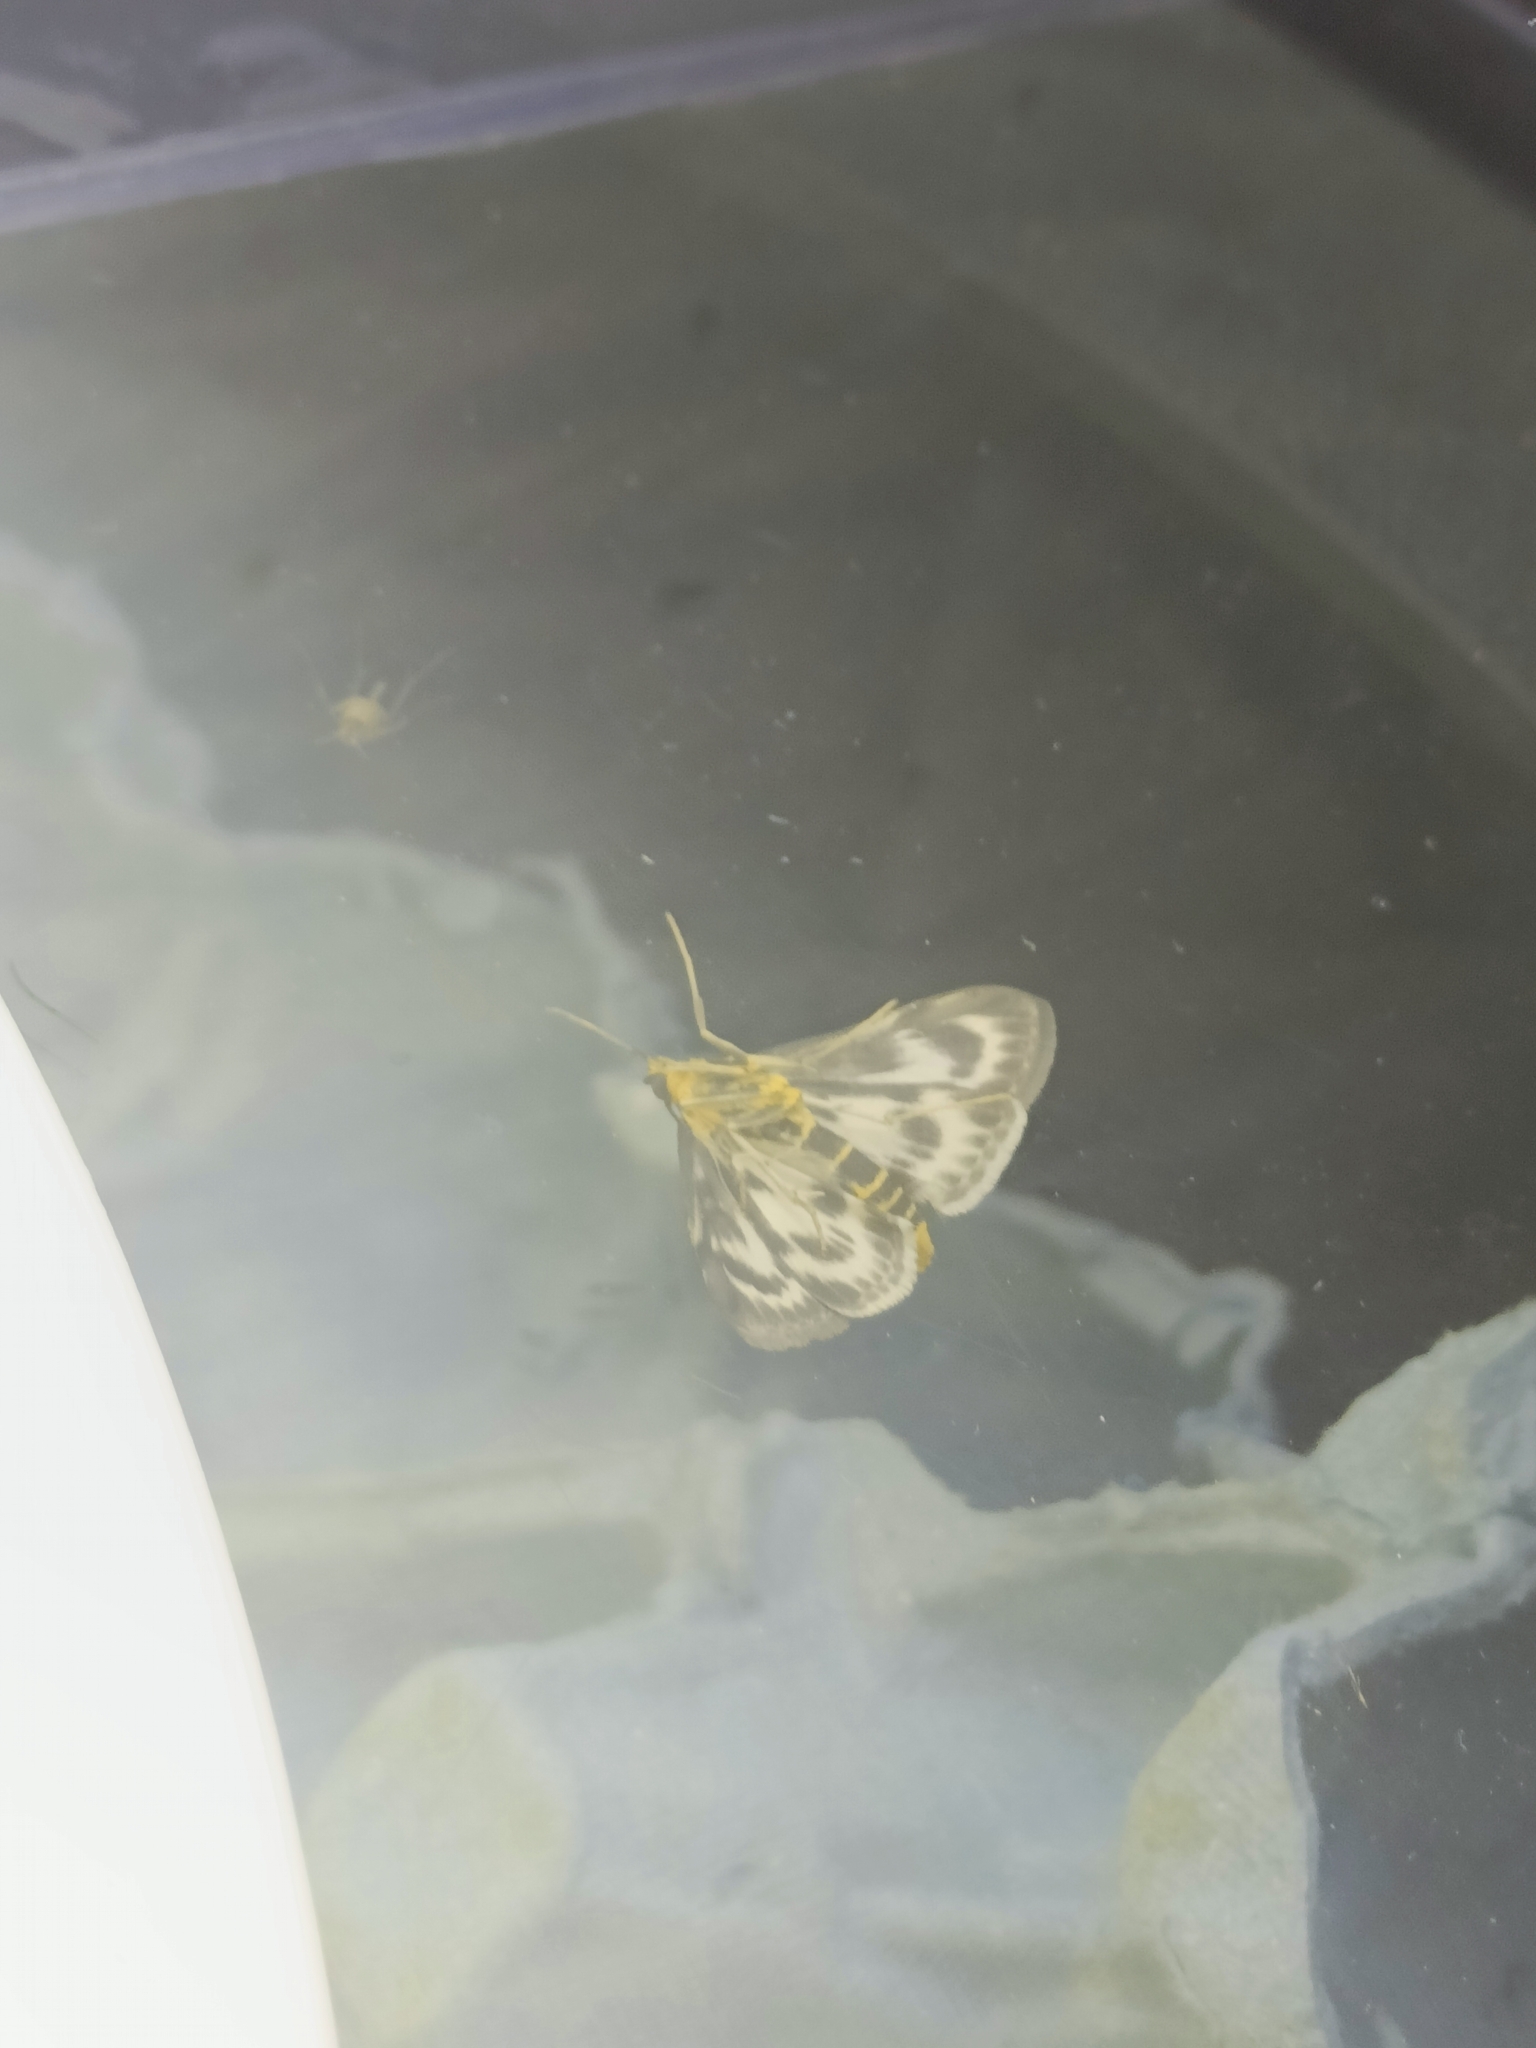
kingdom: Animalia
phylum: Arthropoda
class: Insecta
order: Lepidoptera
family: Crambidae
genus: Anania
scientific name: Anania hortulata
